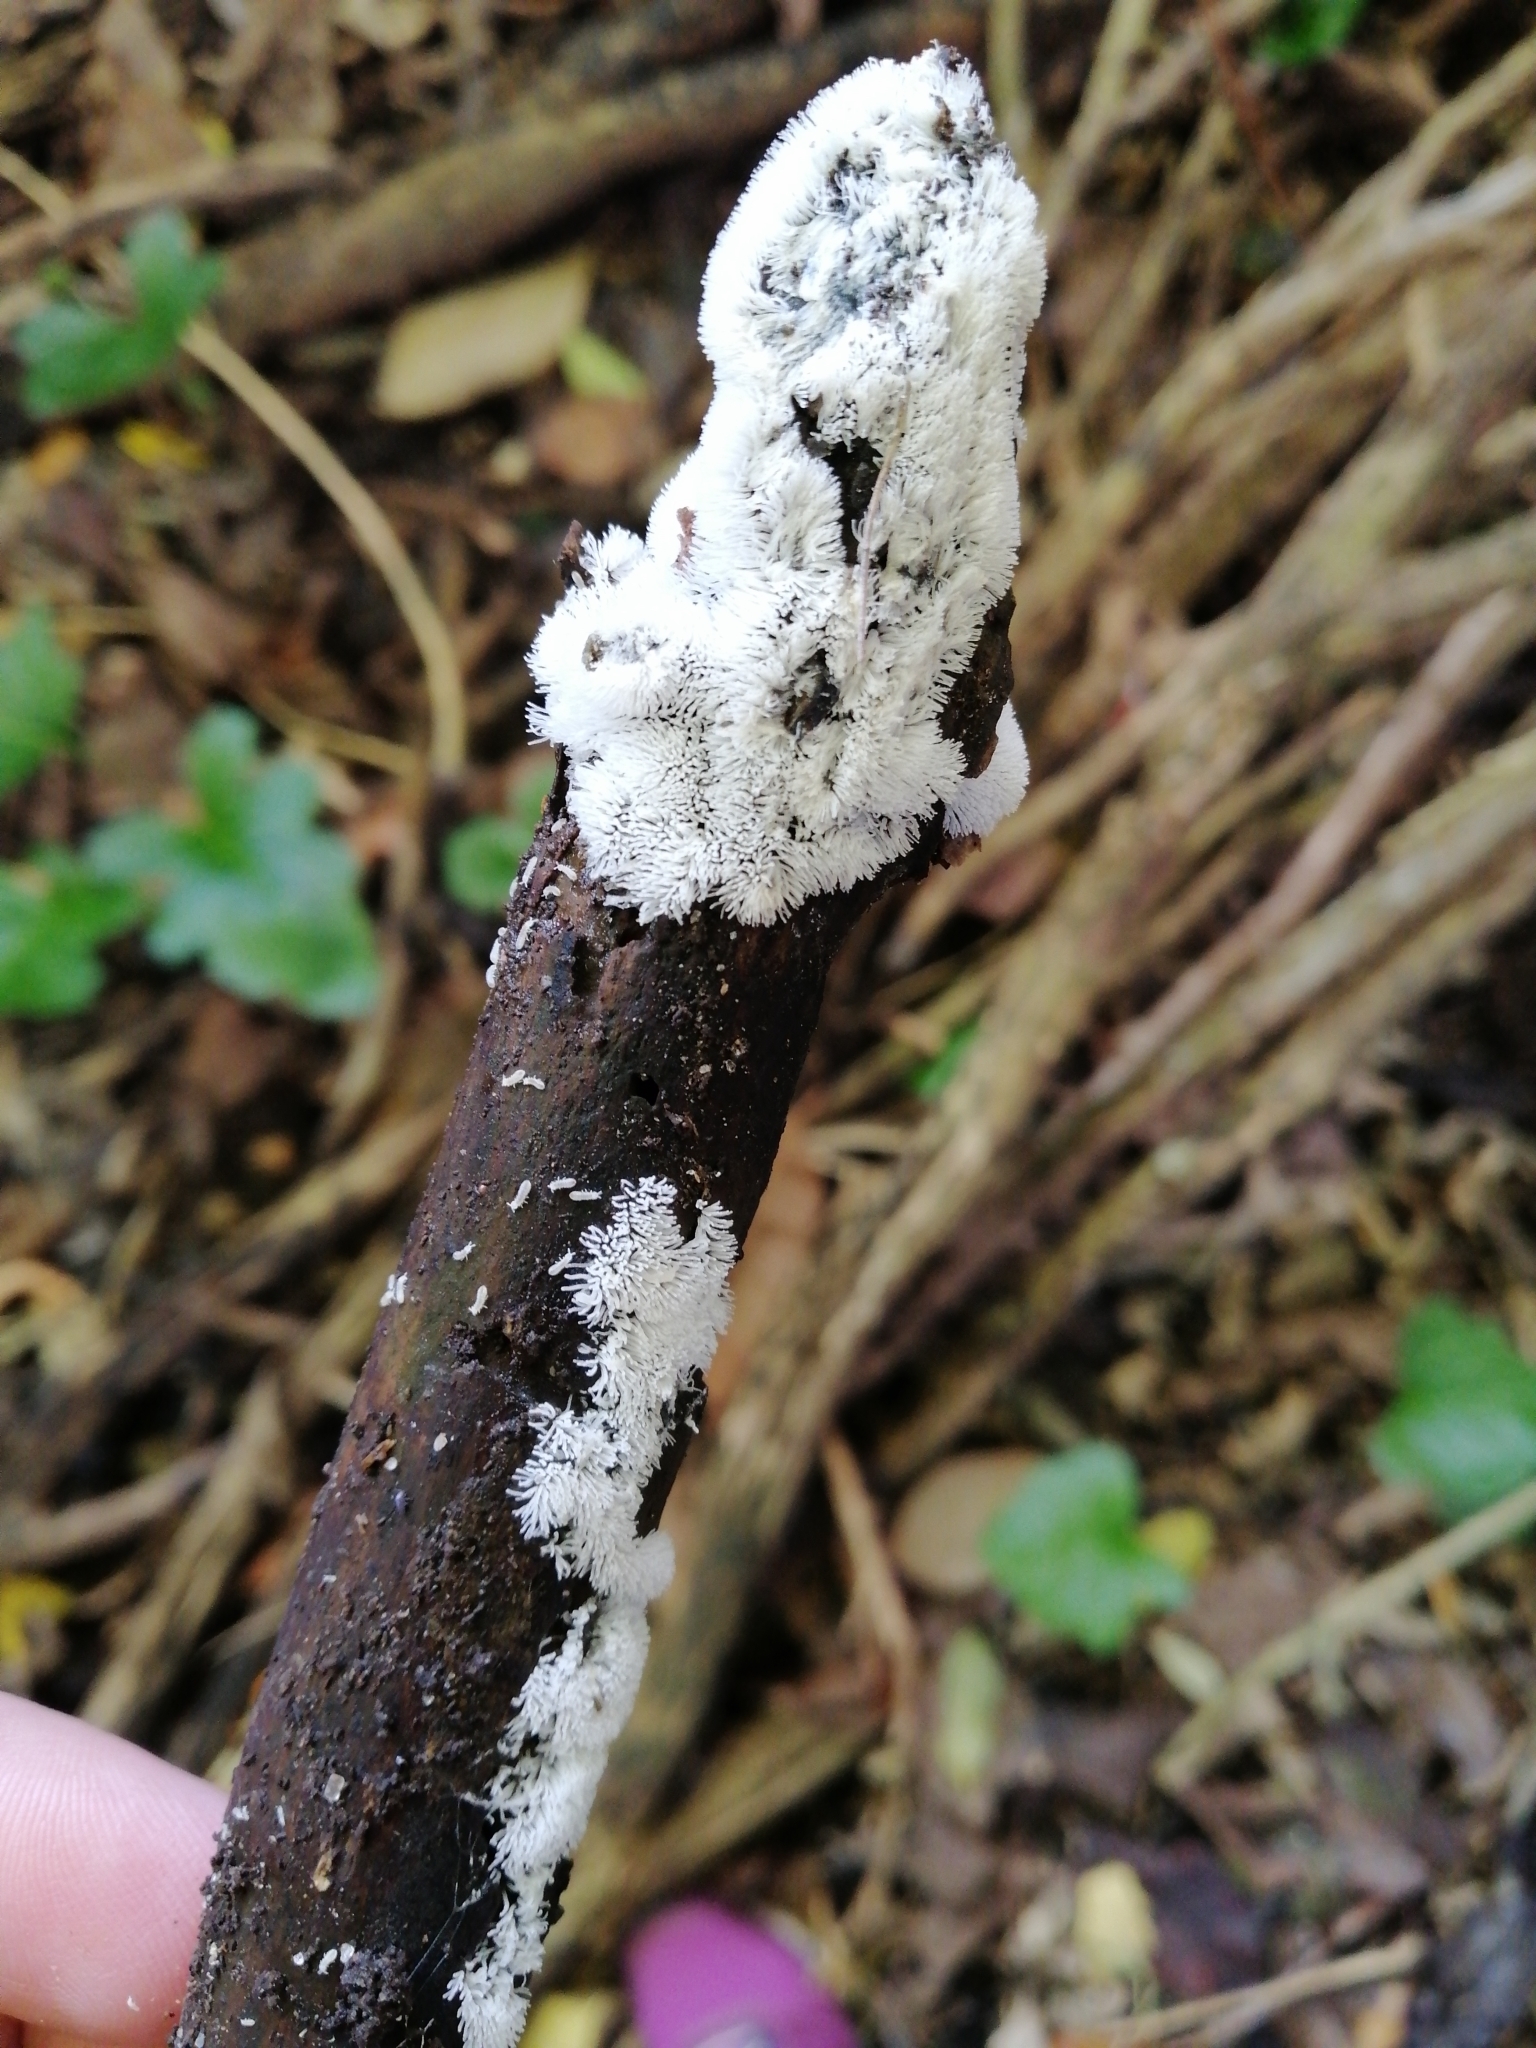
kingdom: Protozoa
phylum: Mycetozoa
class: Protosteliomycetes
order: Ceratiomyxales
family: Ceratiomyxaceae
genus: Ceratiomyxa
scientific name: Ceratiomyxa fruticulosa
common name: Honeycomb coral slime mold
